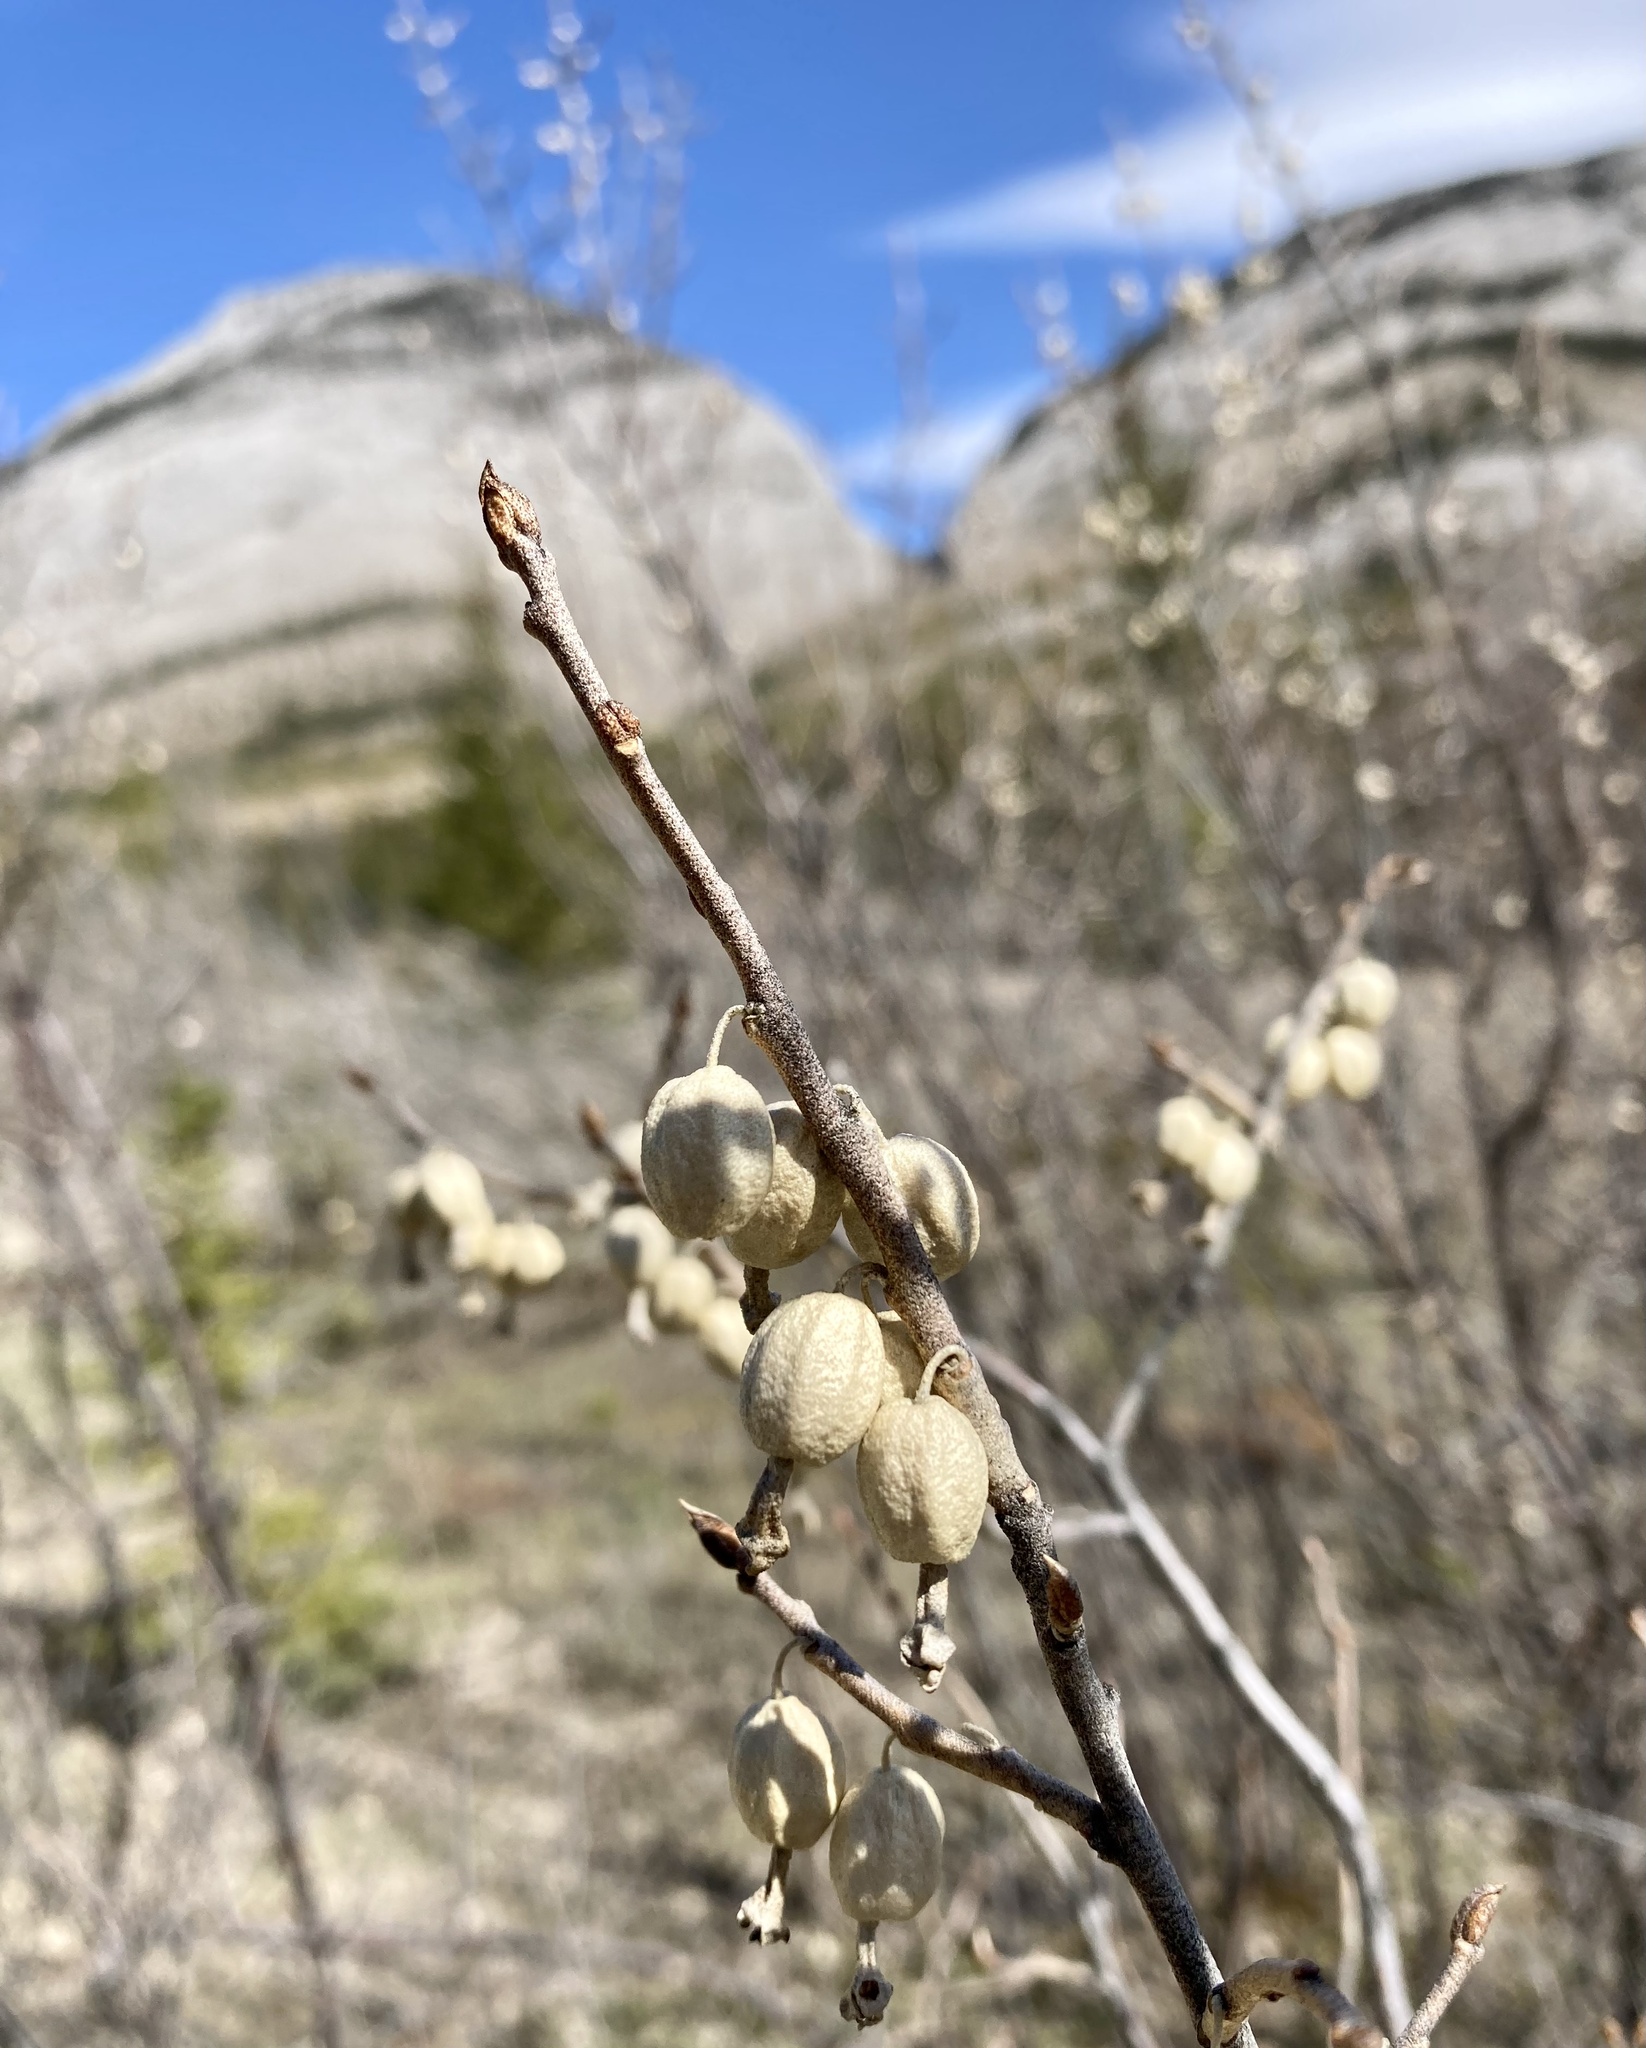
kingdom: Plantae
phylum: Tracheophyta
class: Magnoliopsida
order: Rosales
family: Elaeagnaceae
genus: Elaeagnus
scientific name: Elaeagnus commutata
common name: Silverberry
